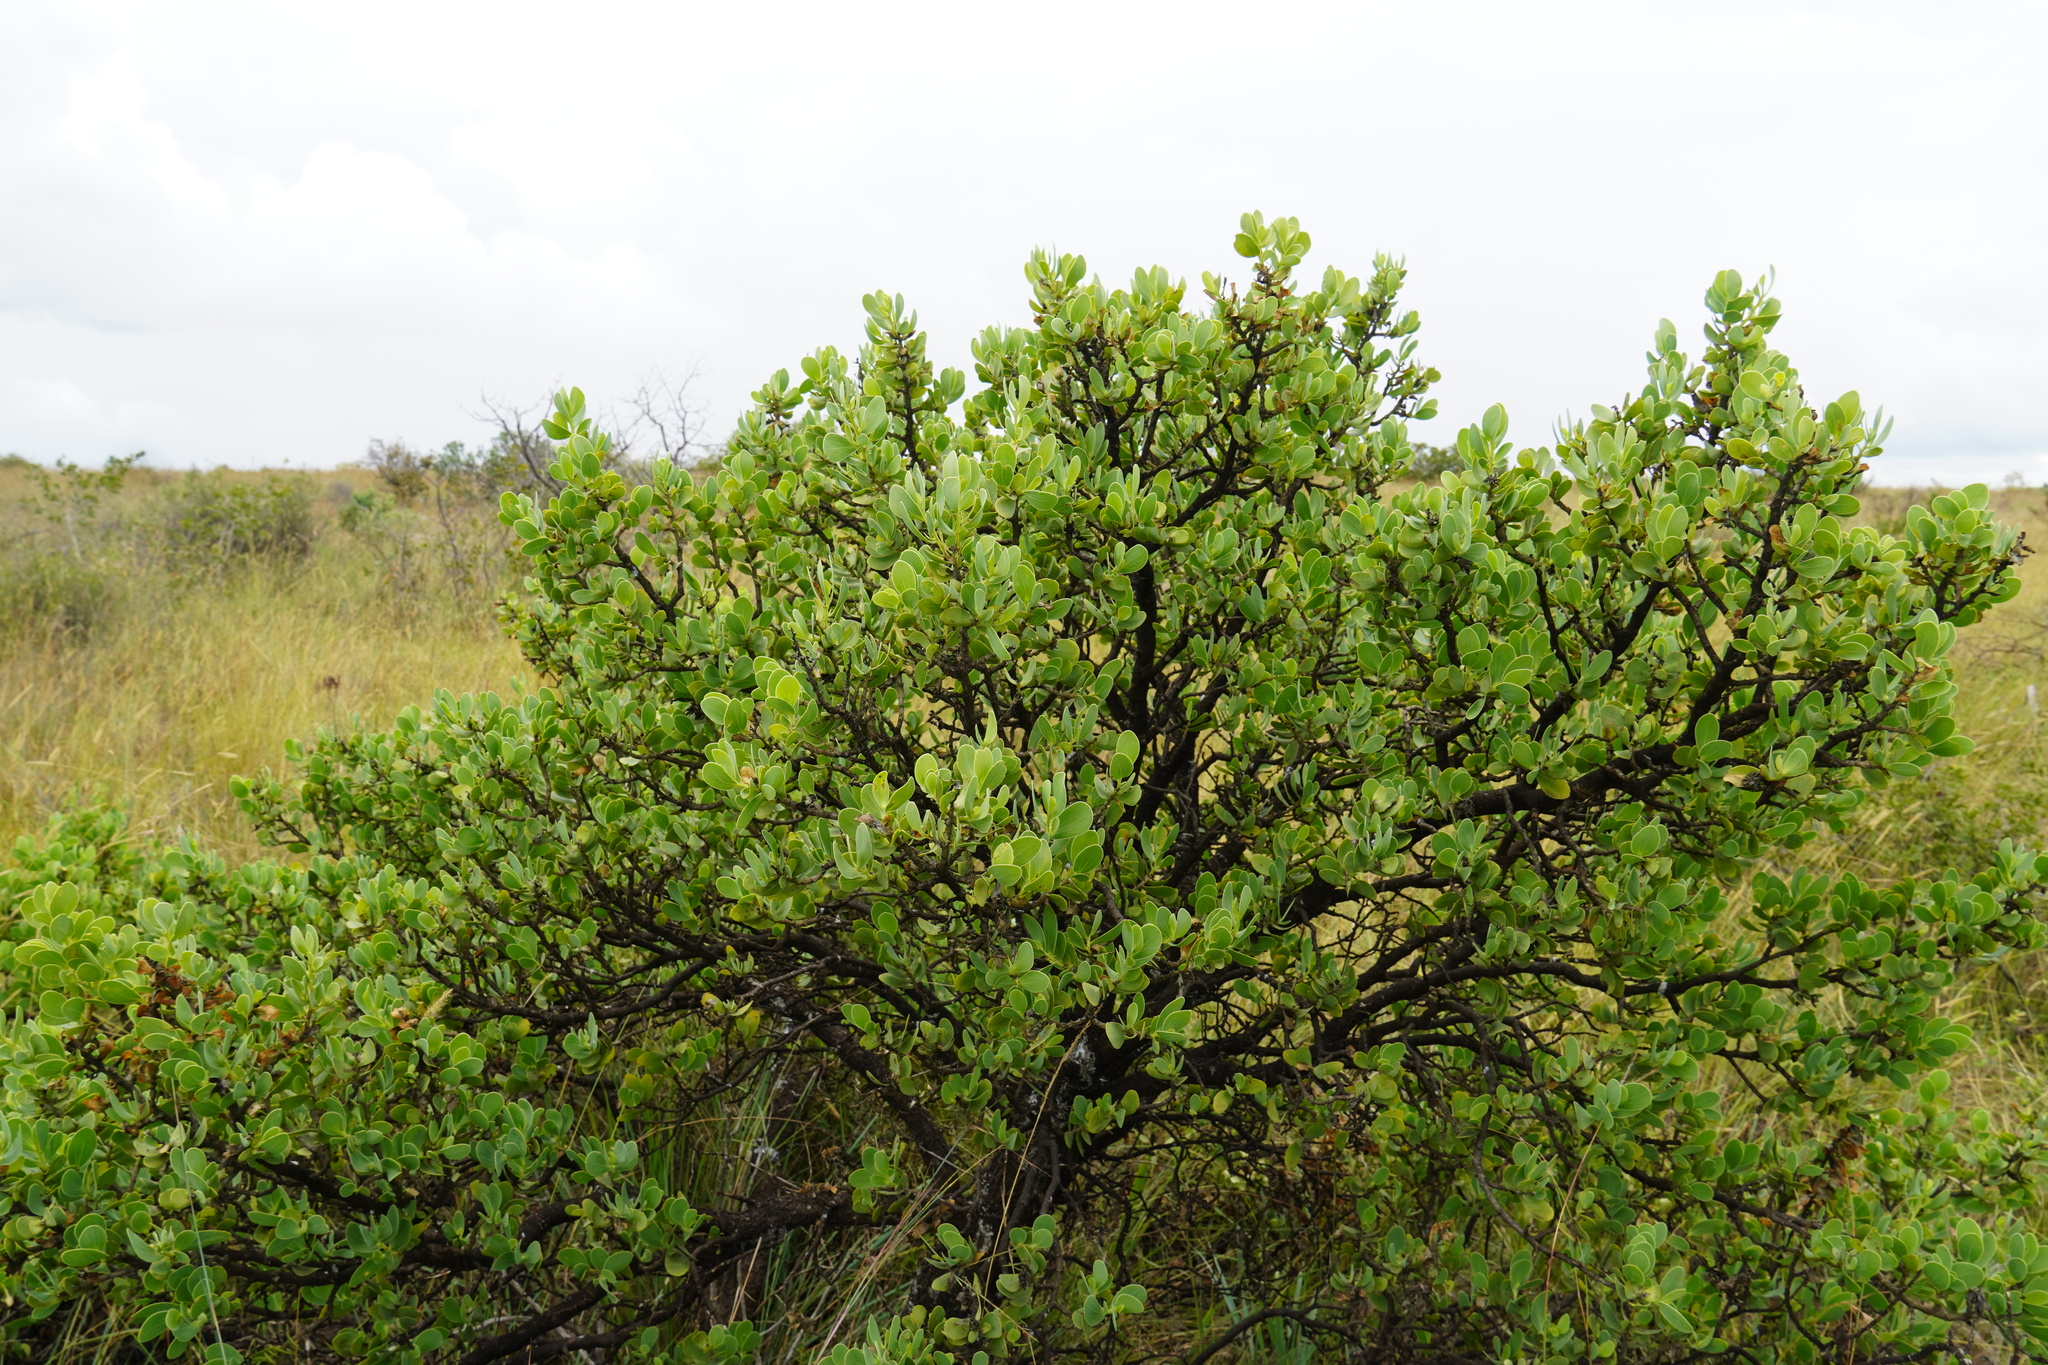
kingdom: Plantae
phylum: Tracheophyta
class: Magnoliopsida
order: Asterales
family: Asteraceae
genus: Lopholaena
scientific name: Lopholaena coriifolia
